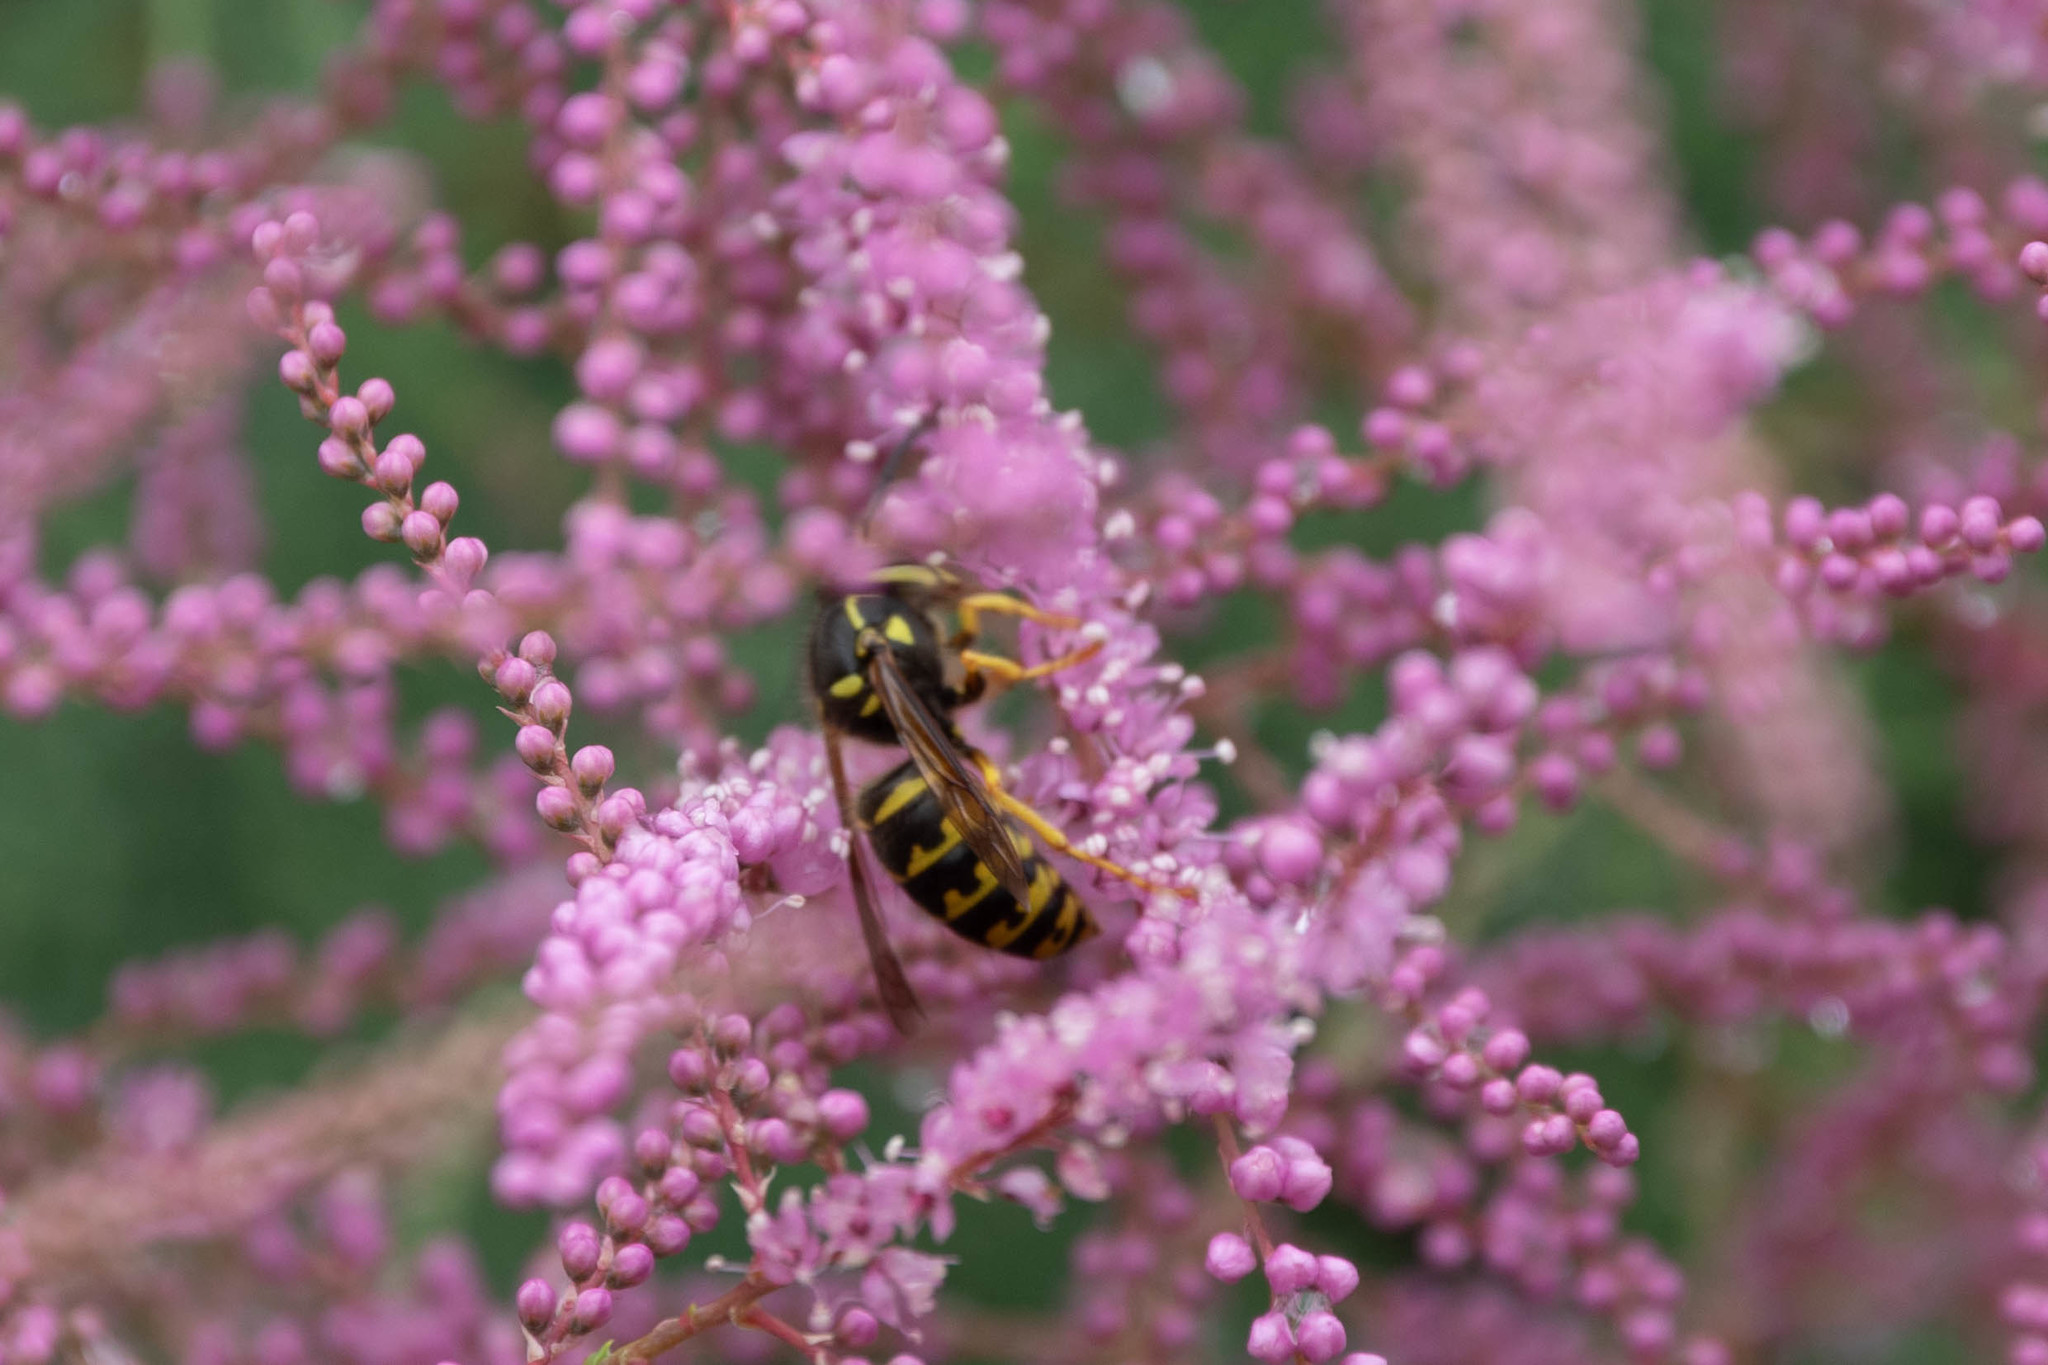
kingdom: Animalia
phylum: Arthropoda
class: Insecta
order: Hymenoptera
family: Vespidae
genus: Dolichovespula
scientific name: Dolichovespula arenaria
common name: Aerial yellowjacket
